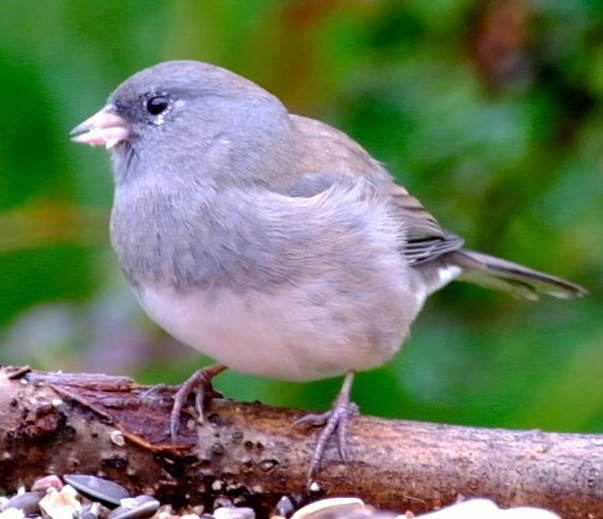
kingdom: Animalia
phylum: Chordata
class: Aves
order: Passeriformes
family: Passerellidae
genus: Junco
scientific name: Junco hyemalis
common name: Dark-eyed junco
